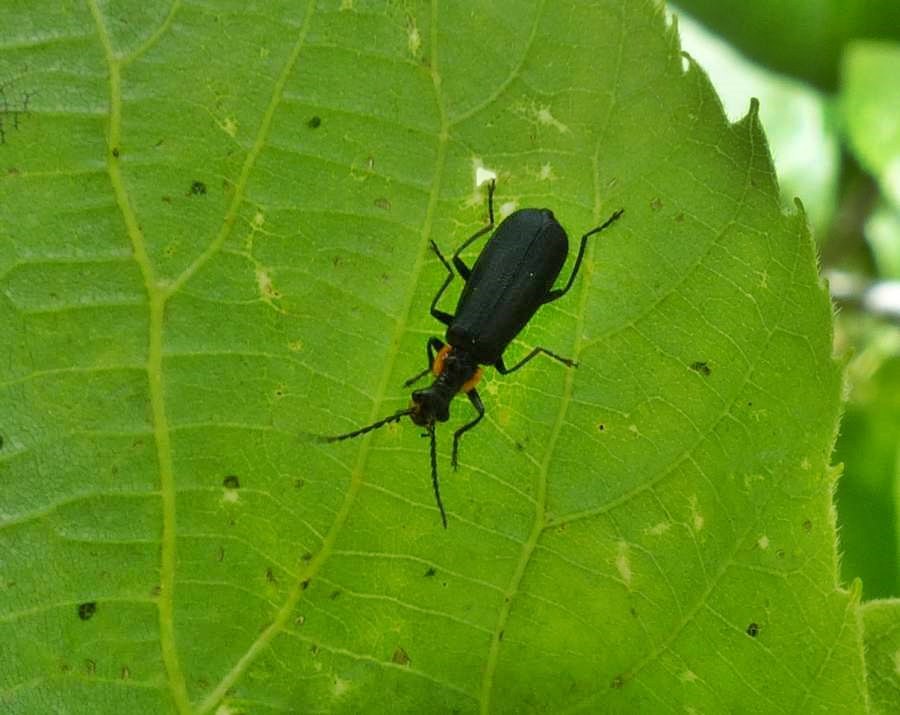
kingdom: Animalia
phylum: Arthropoda
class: Insecta
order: Coleoptera
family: Cantharidae
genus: Podabrus
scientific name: Podabrus rugosulus
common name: Wrinkled soldier beetle
